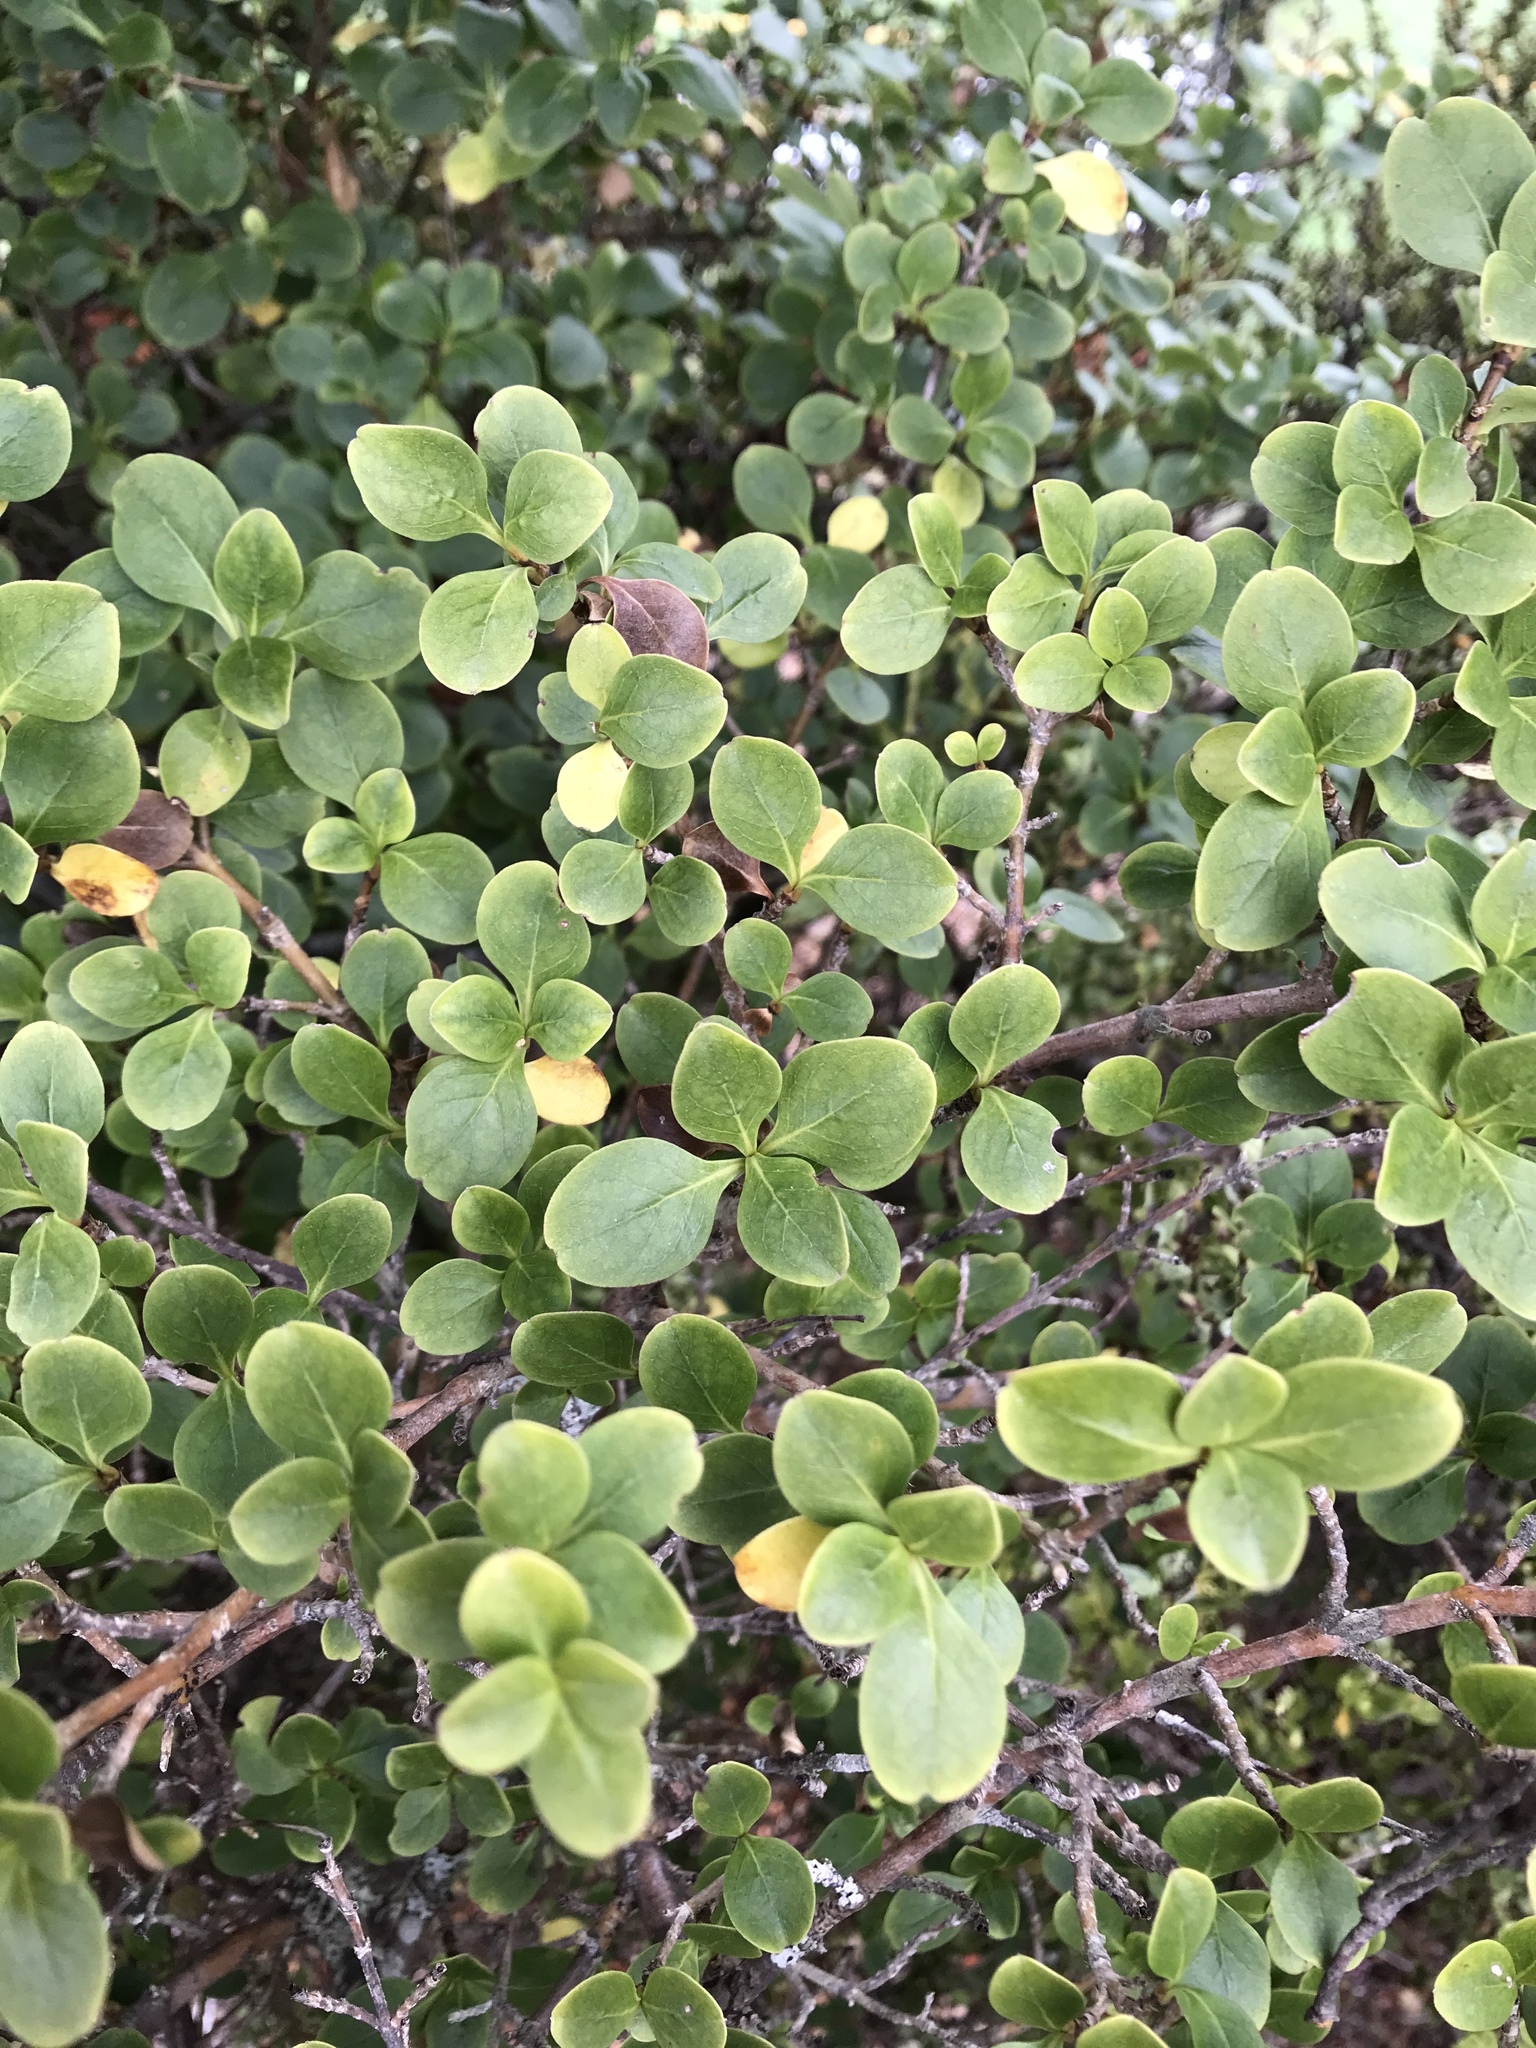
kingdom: Plantae
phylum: Tracheophyta
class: Magnoliopsida
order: Gentianales
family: Rubiaceae
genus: Coprosma
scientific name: Coprosma foetidissima
